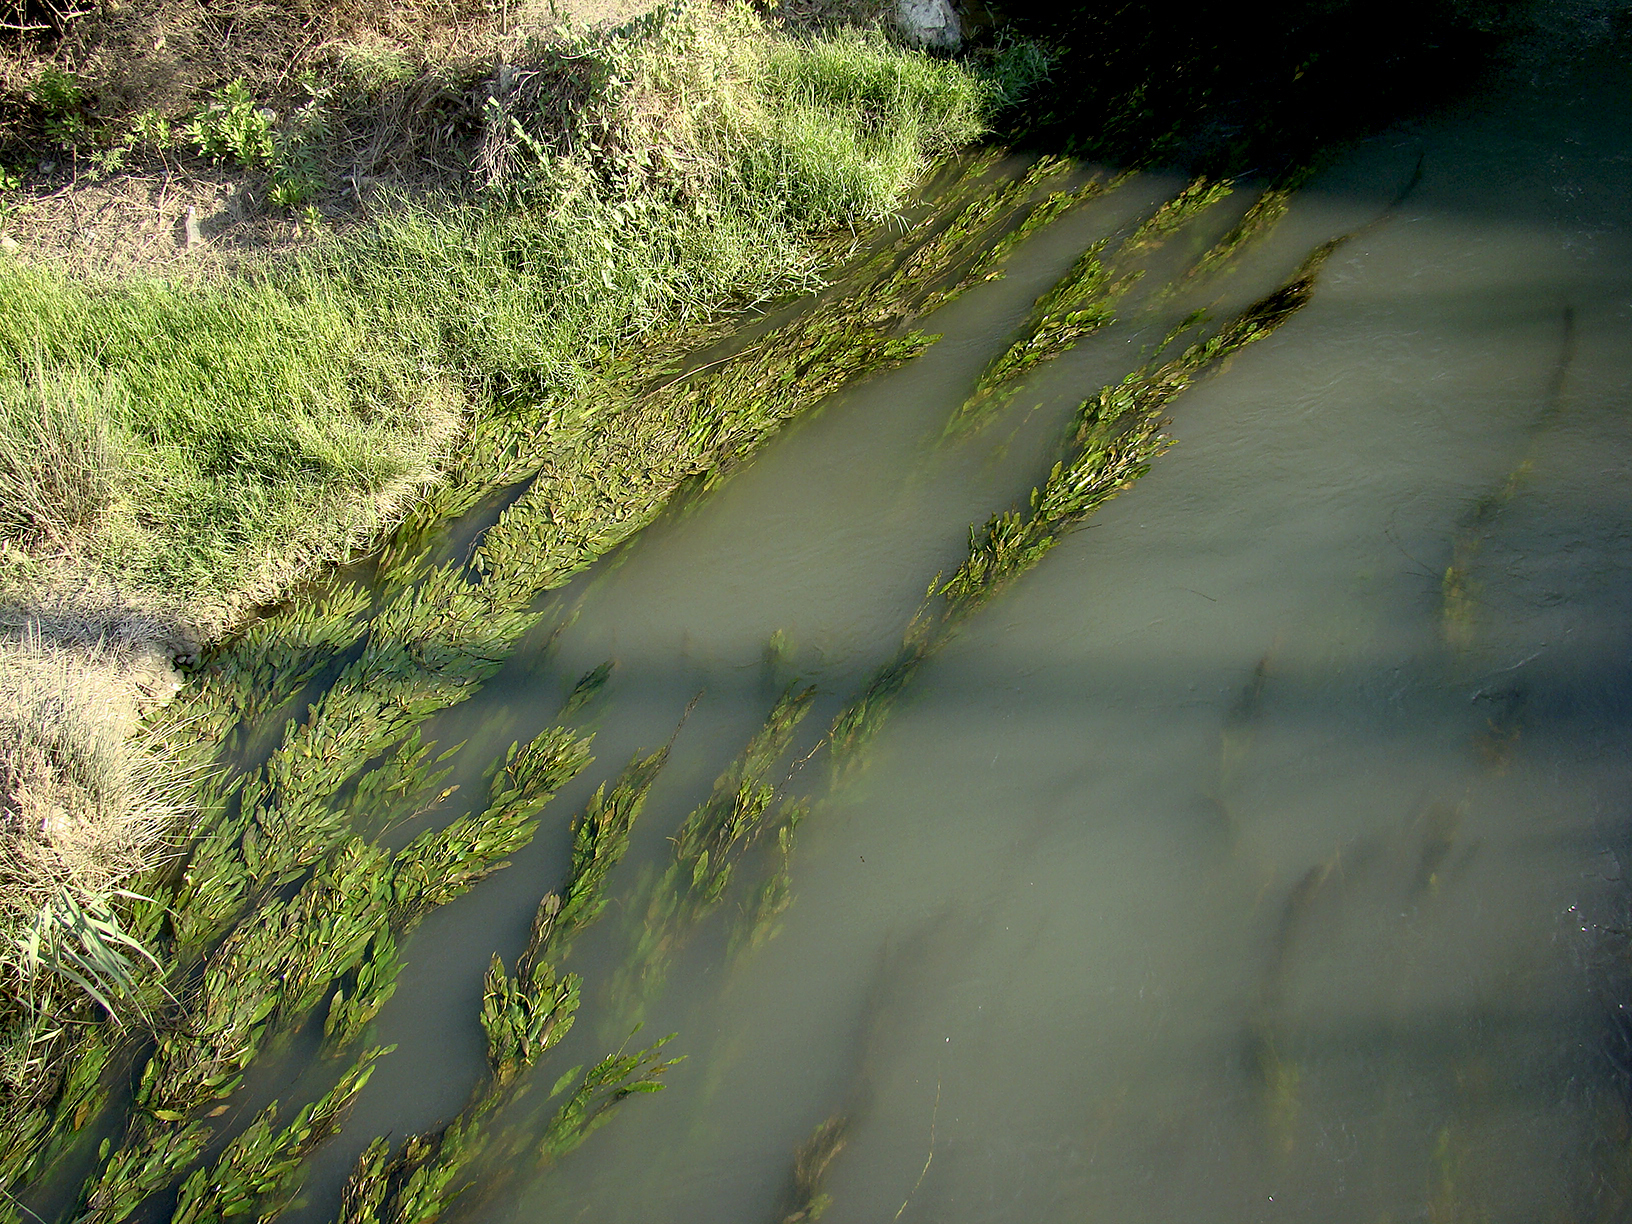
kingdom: Plantae
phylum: Tracheophyta
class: Liliopsida
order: Alismatales
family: Potamogetonaceae
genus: Potamogeton
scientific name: Potamogeton nodosus
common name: Loddon pondweed
